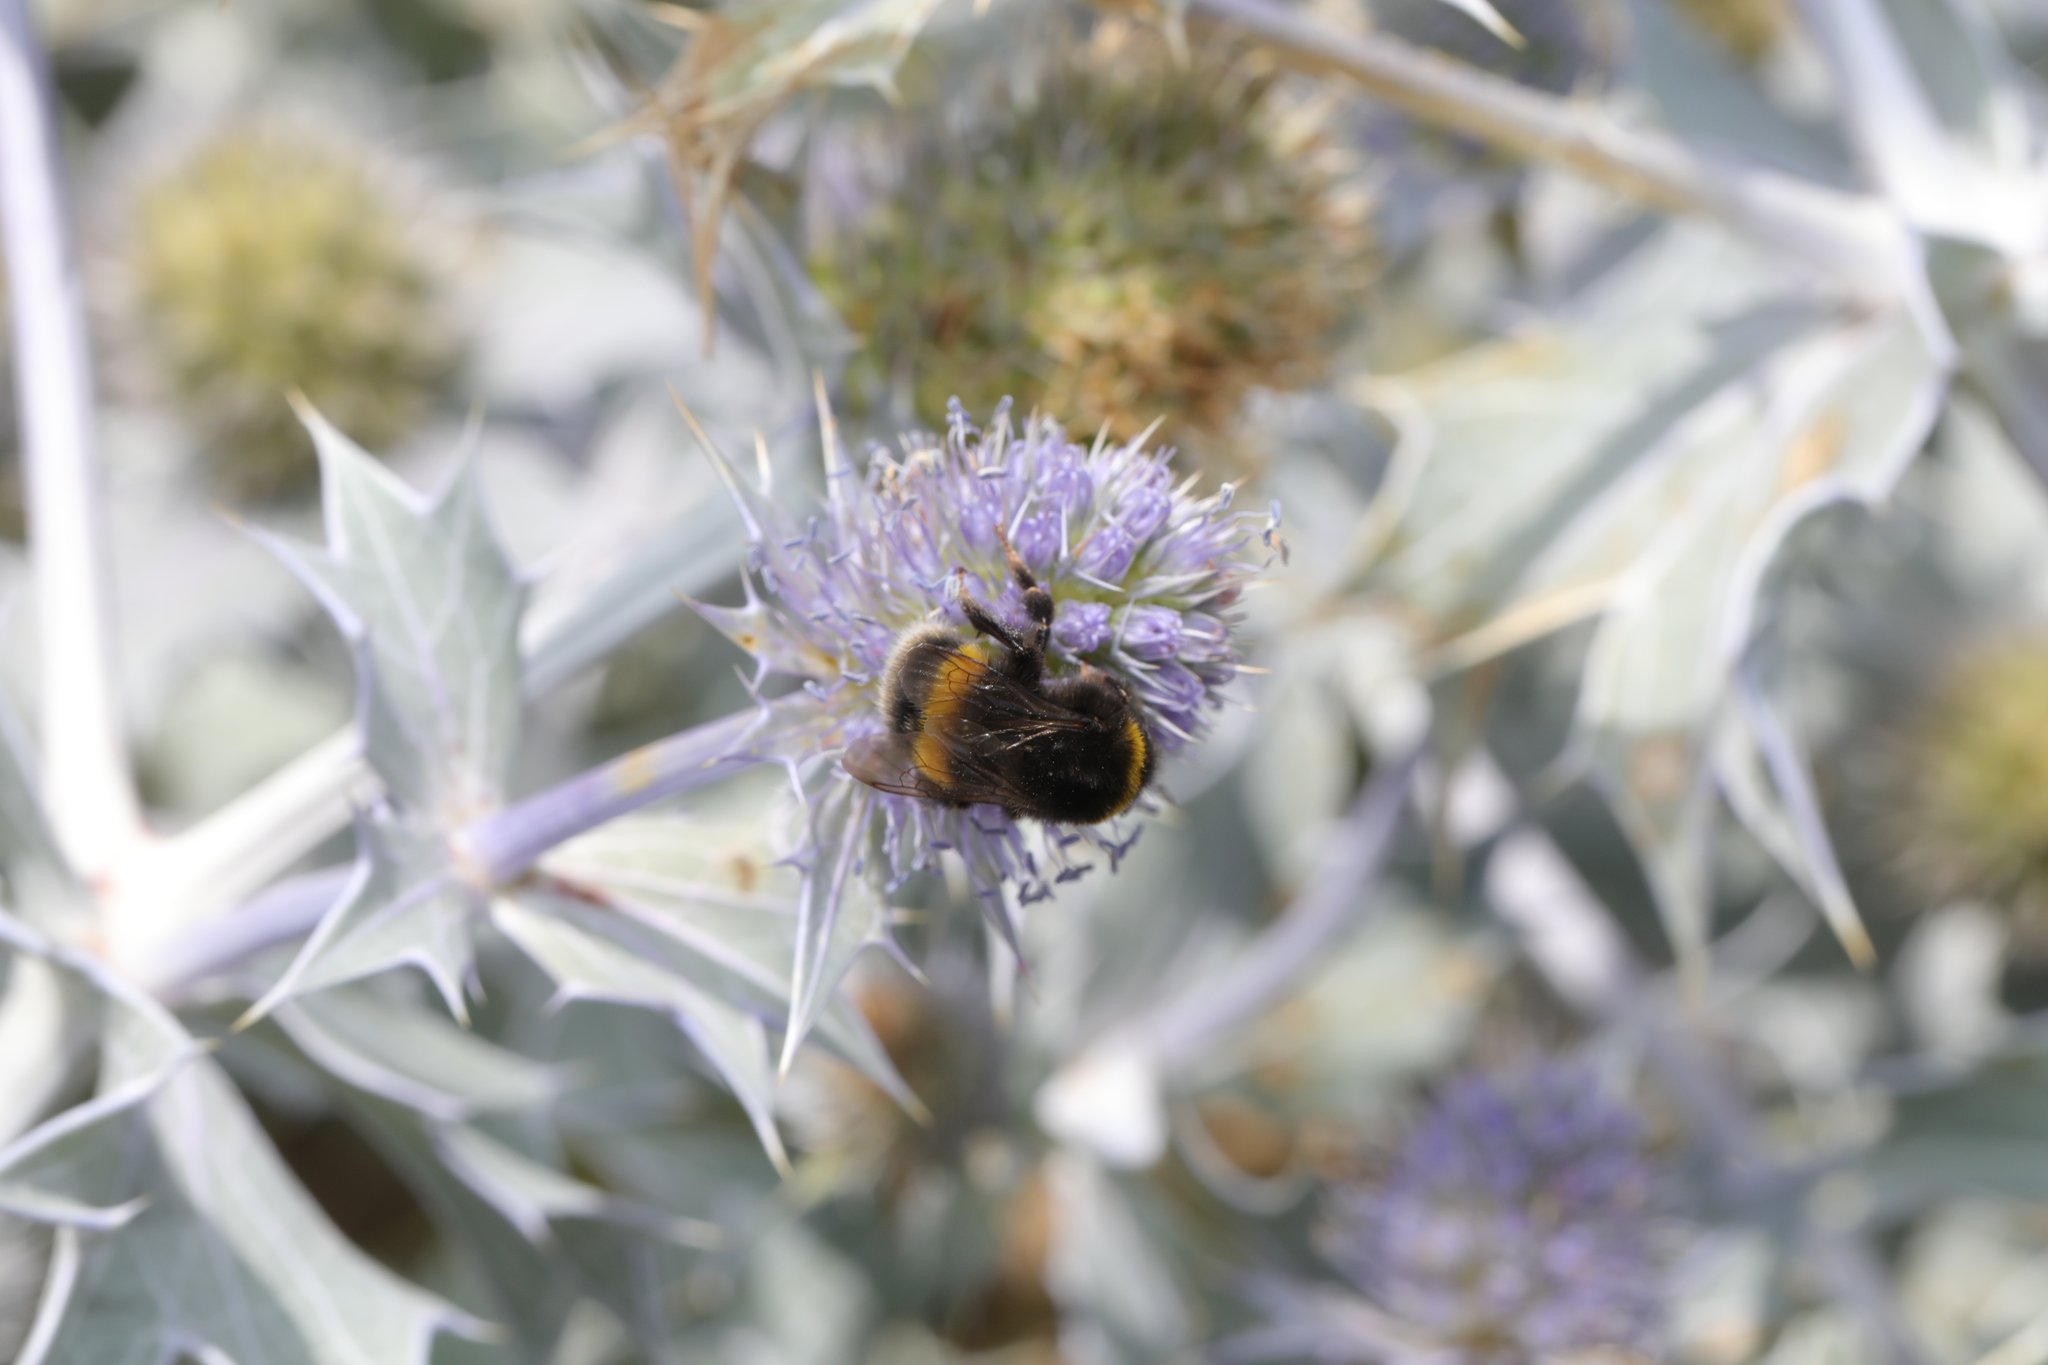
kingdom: Animalia
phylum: Arthropoda
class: Insecta
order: Hymenoptera
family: Apidae
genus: Bombus
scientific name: Bombus terrestris
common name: Buff-tailed bumblebee
